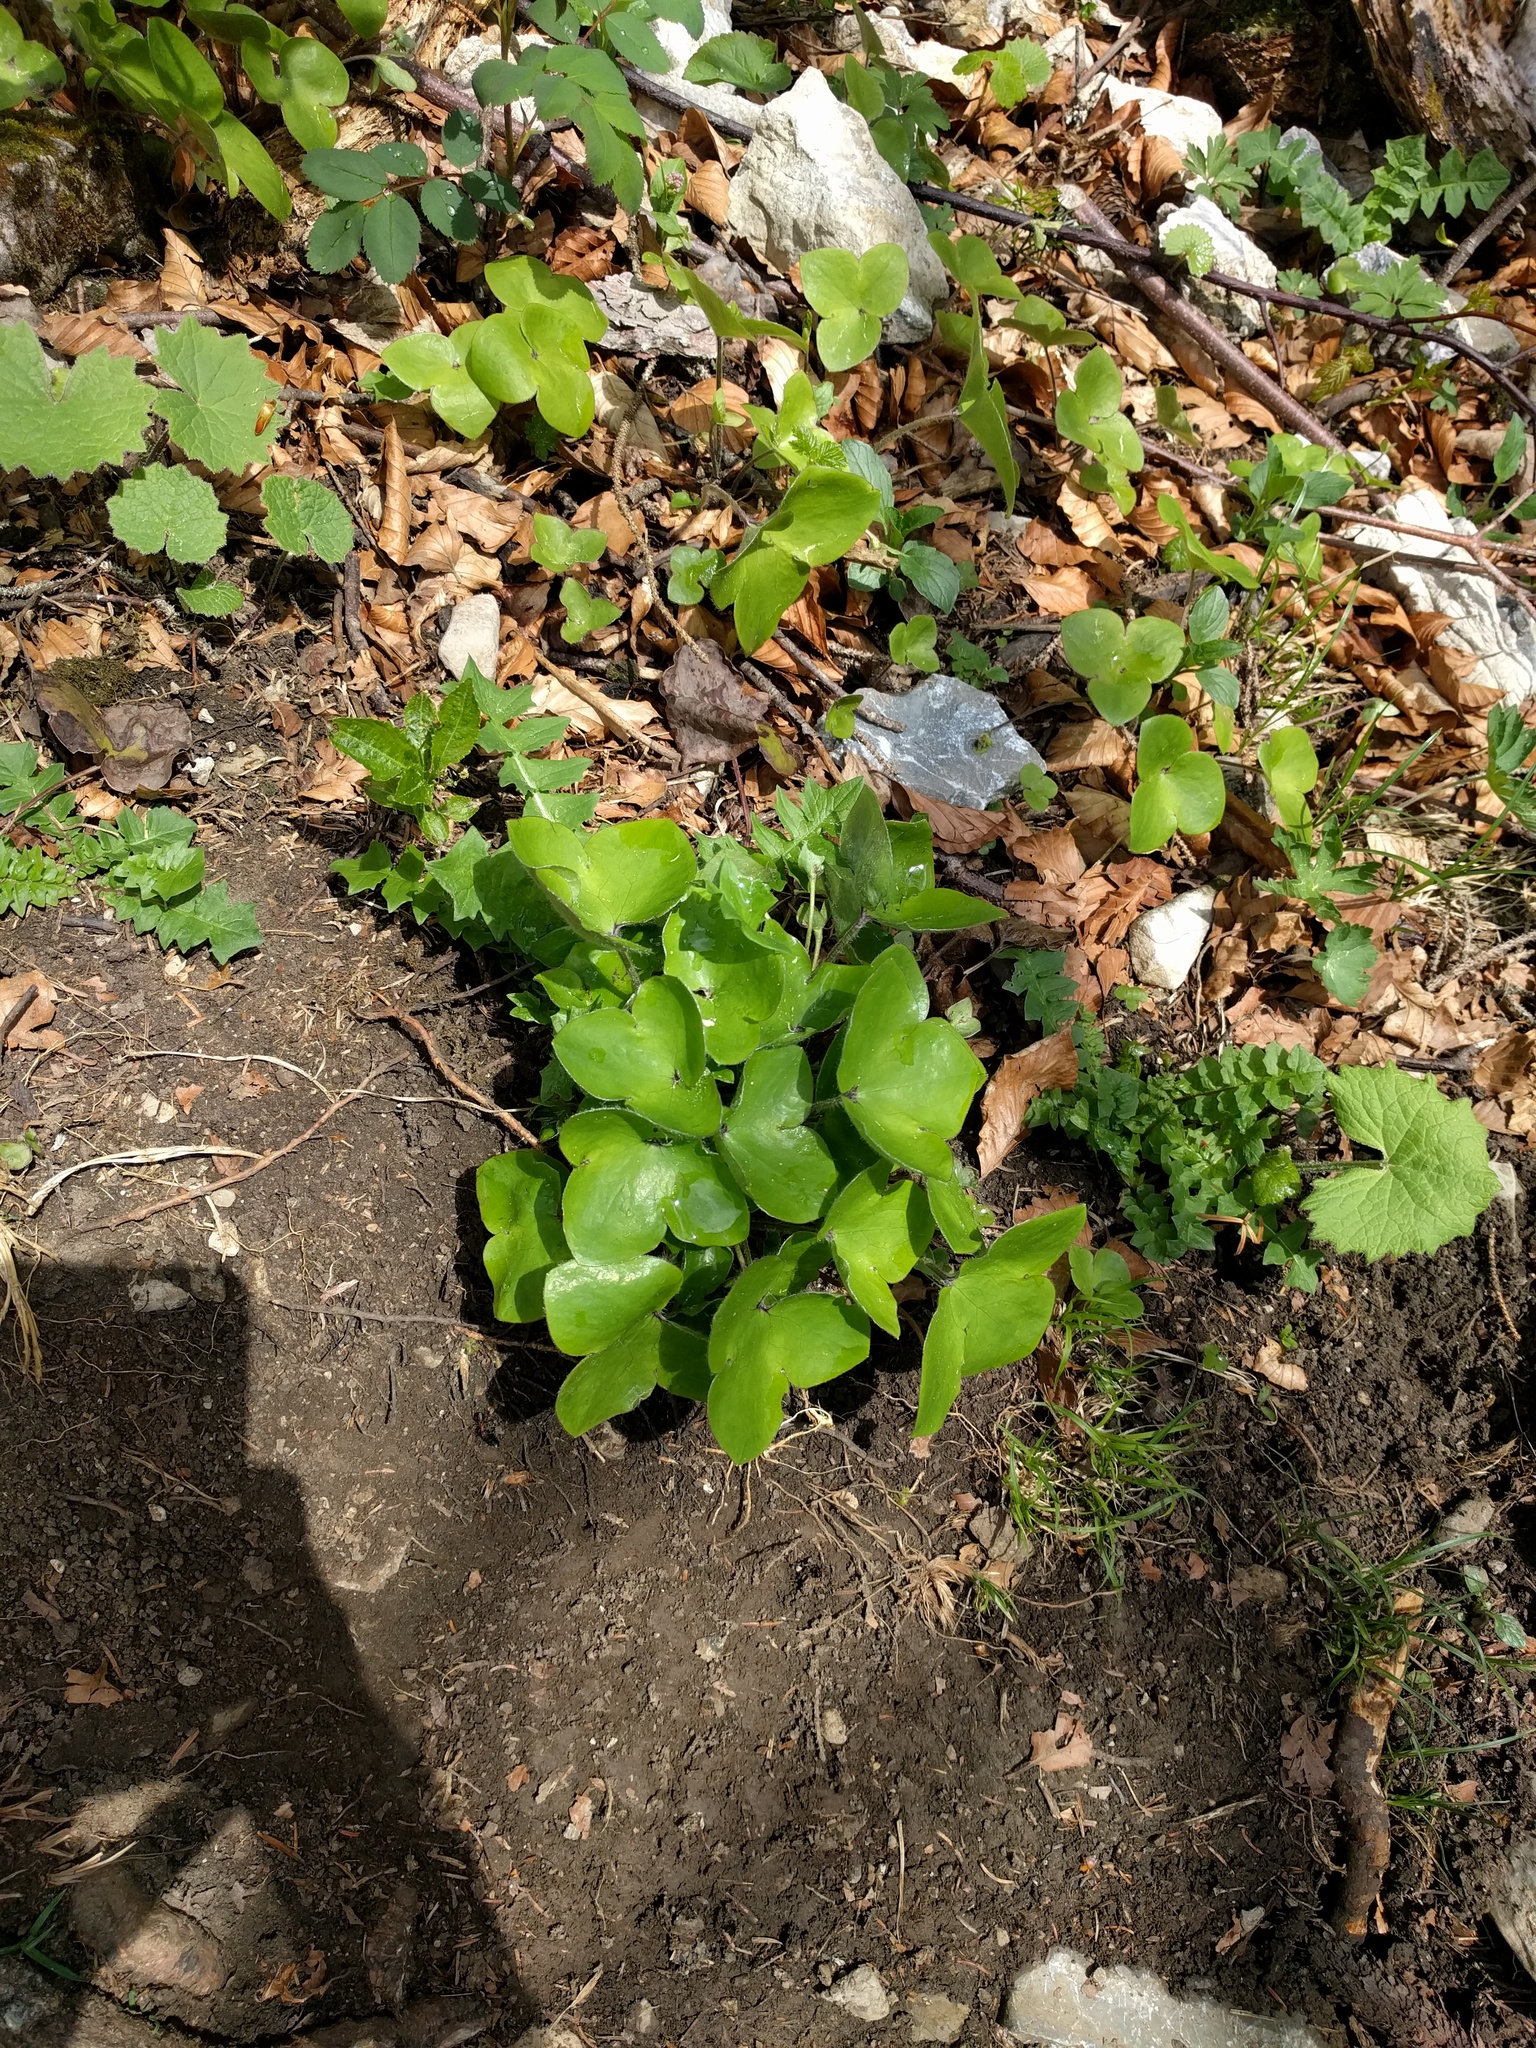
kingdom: Plantae
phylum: Tracheophyta
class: Magnoliopsida
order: Ranunculales
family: Ranunculaceae
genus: Hepatica
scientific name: Hepatica nobilis
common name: Liverleaf
